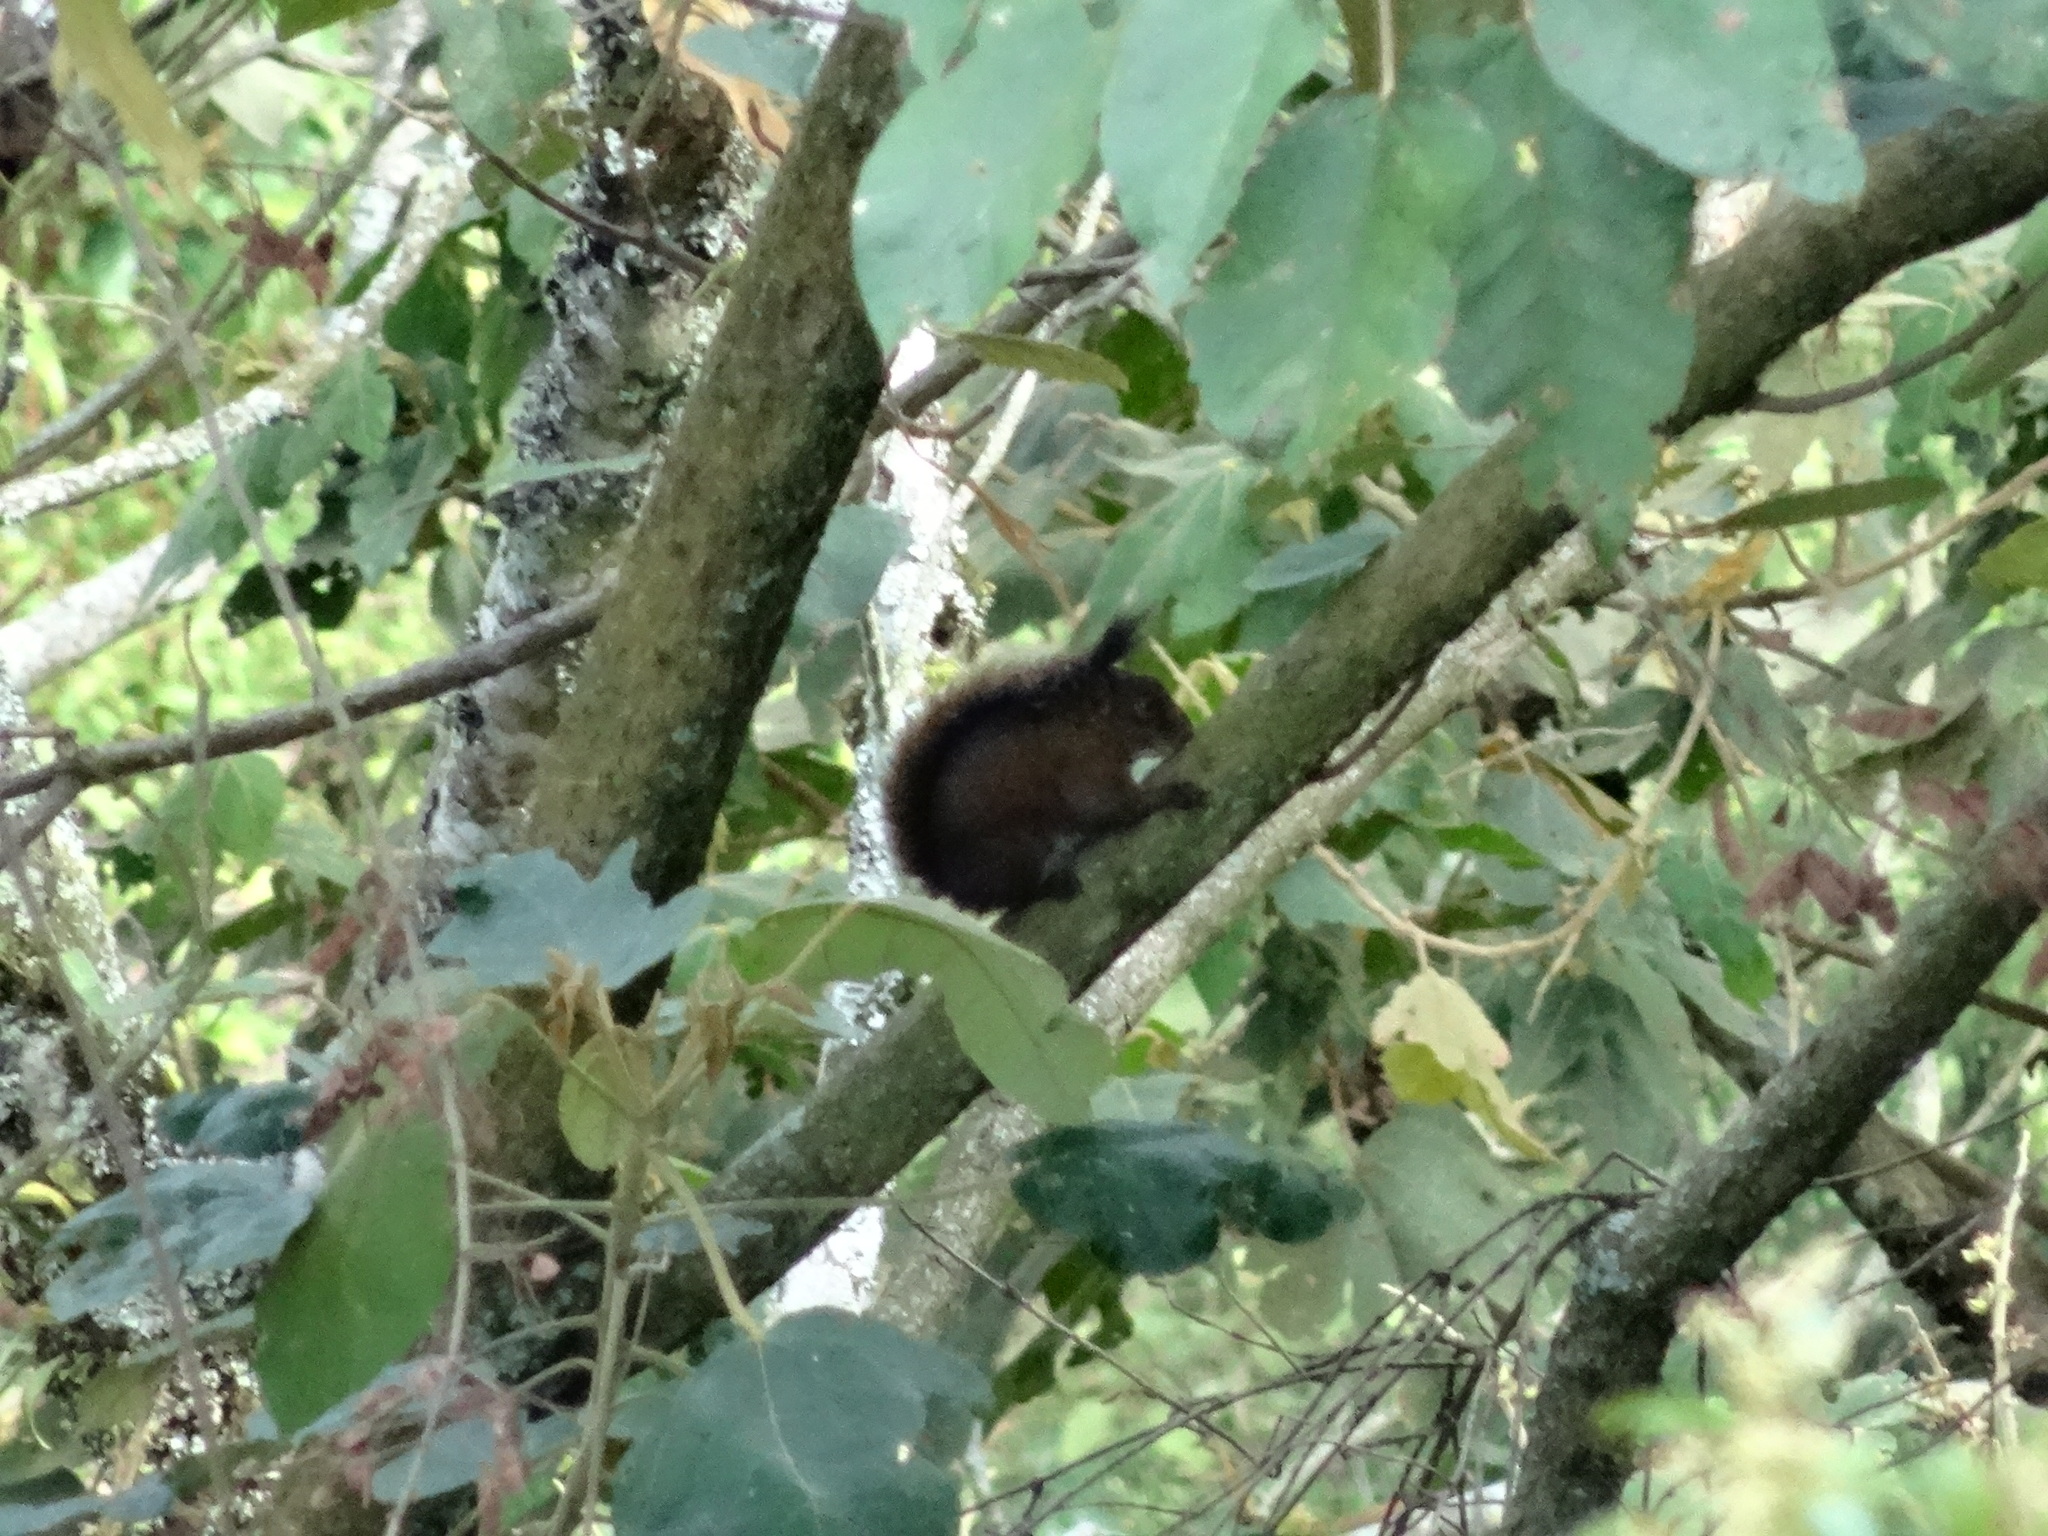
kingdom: Animalia
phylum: Chordata
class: Mammalia
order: Rodentia
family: Sciuridae
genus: Sciurus
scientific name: Sciurus pucheranii
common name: Andean squirrel
